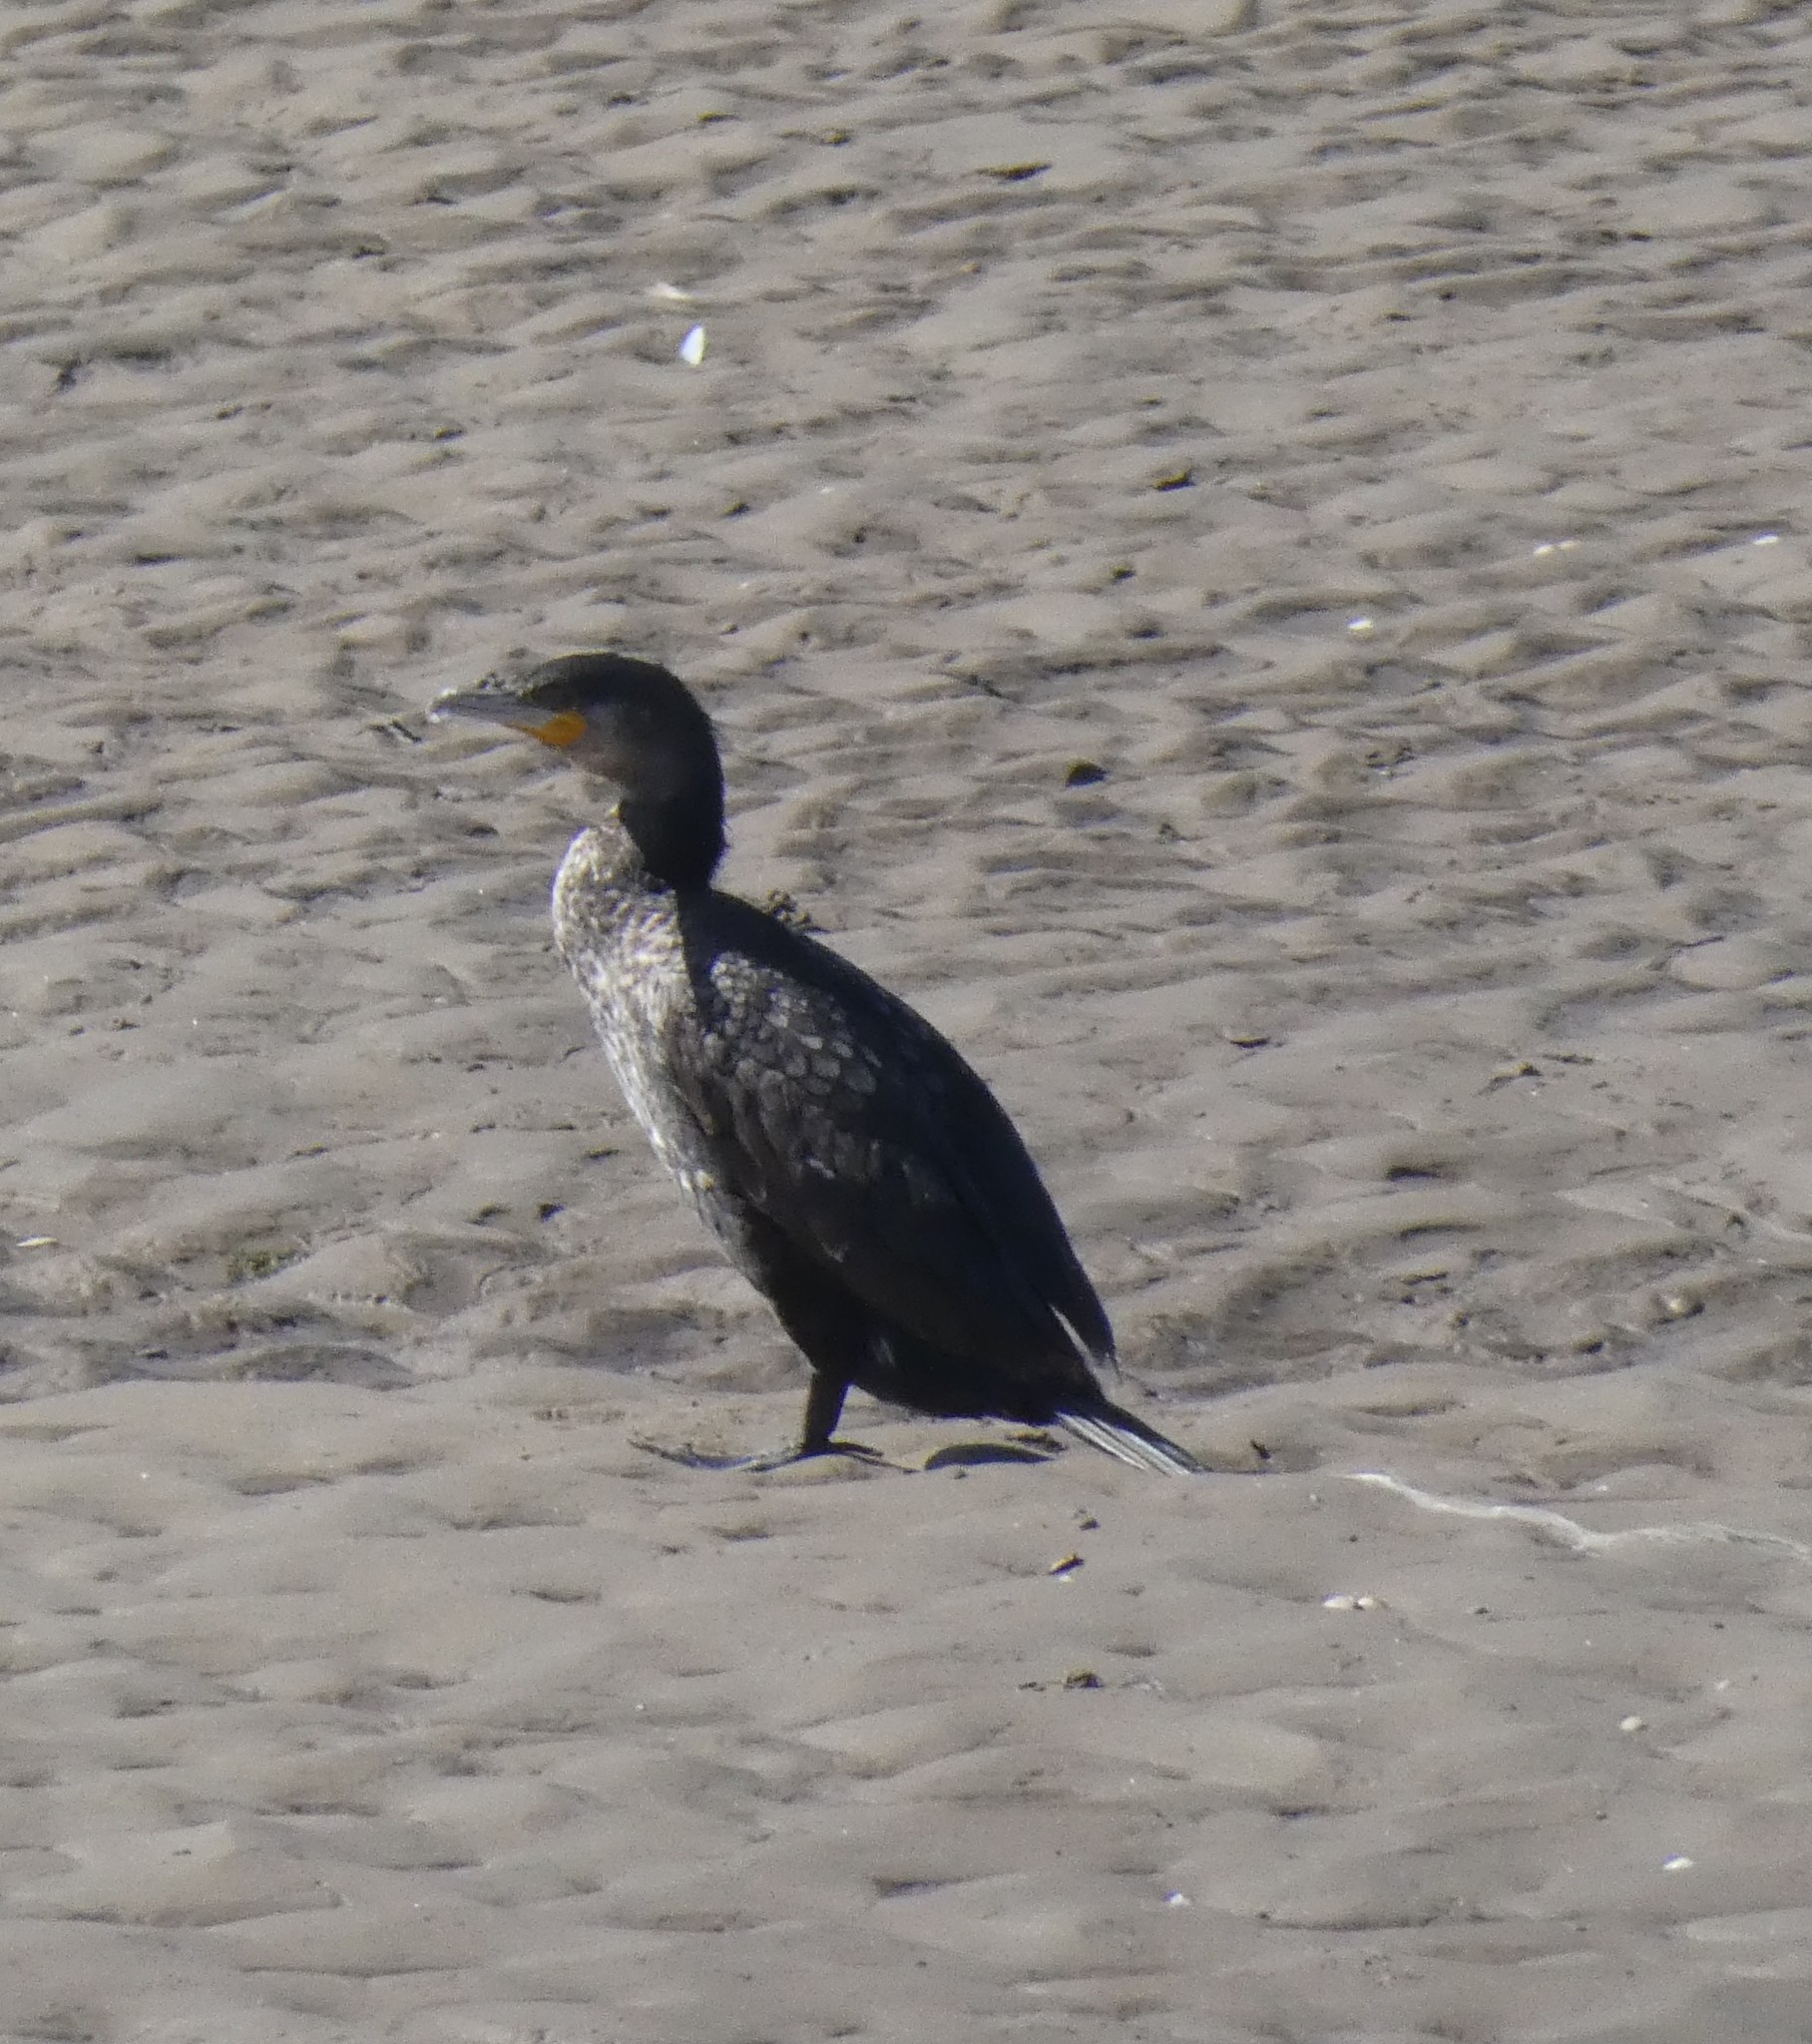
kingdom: Animalia
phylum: Chordata
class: Aves
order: Suliformes
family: Phalacrocoracidae
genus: Phalacrocorax
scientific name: Phalacrocorax carbo
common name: Great cormorant
